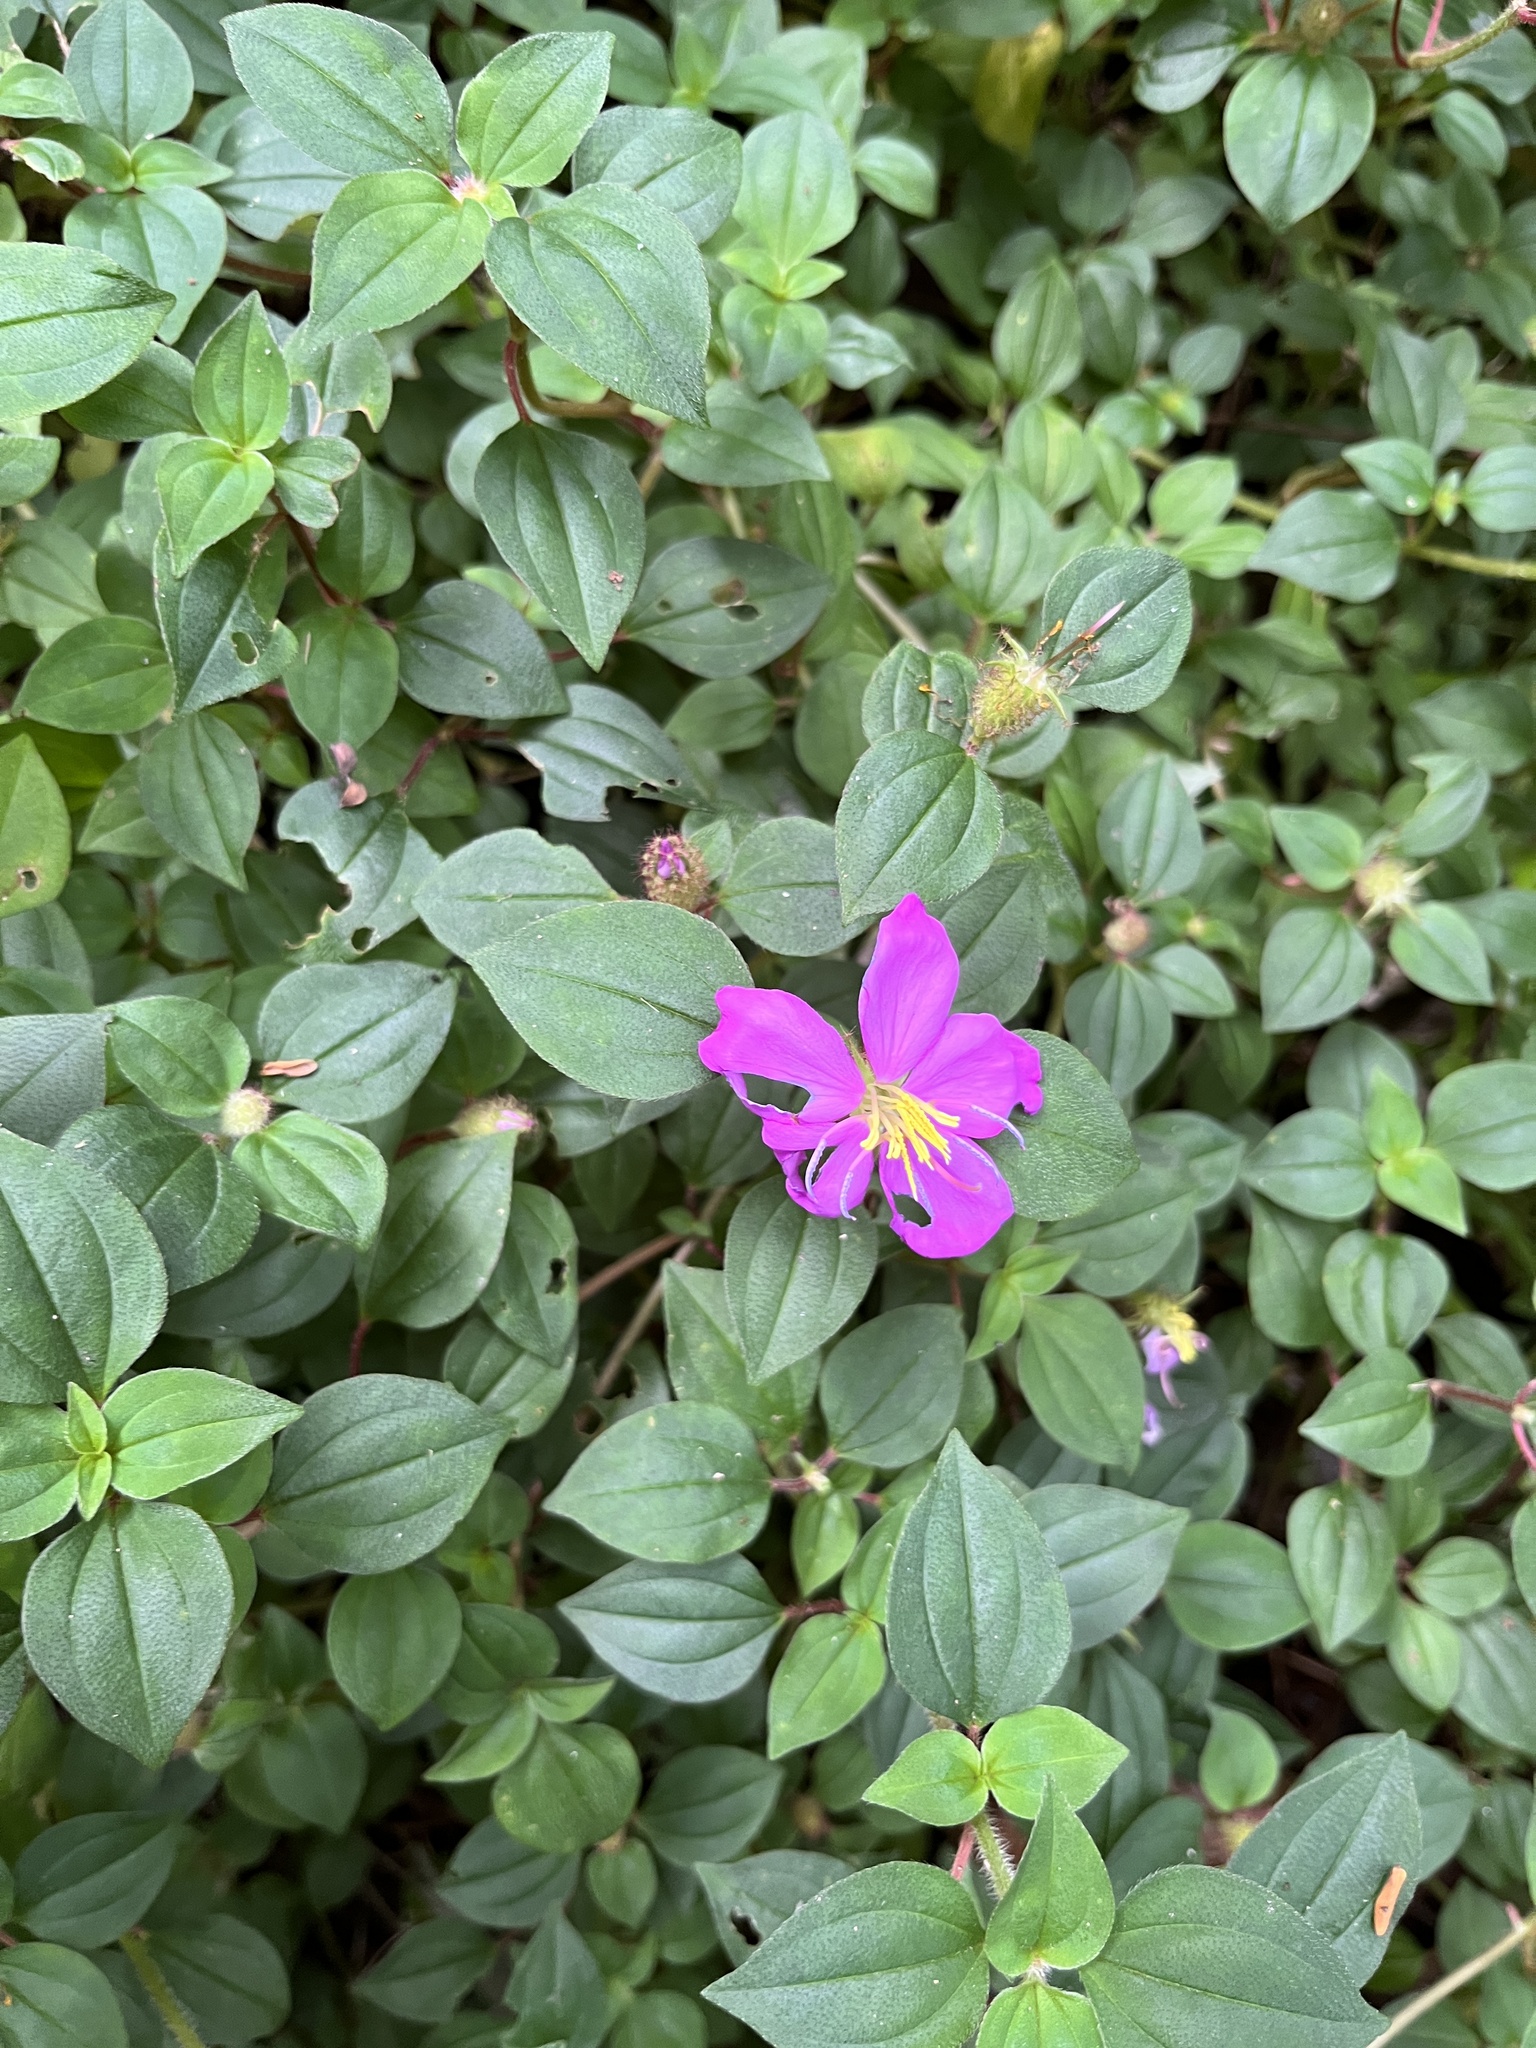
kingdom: Plantae
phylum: Tracheophyta
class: Magnoliopsida
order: Myrtales
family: Melastomataceae
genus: Heterotis
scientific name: Heterotis rotundifolia
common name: Pinklady
